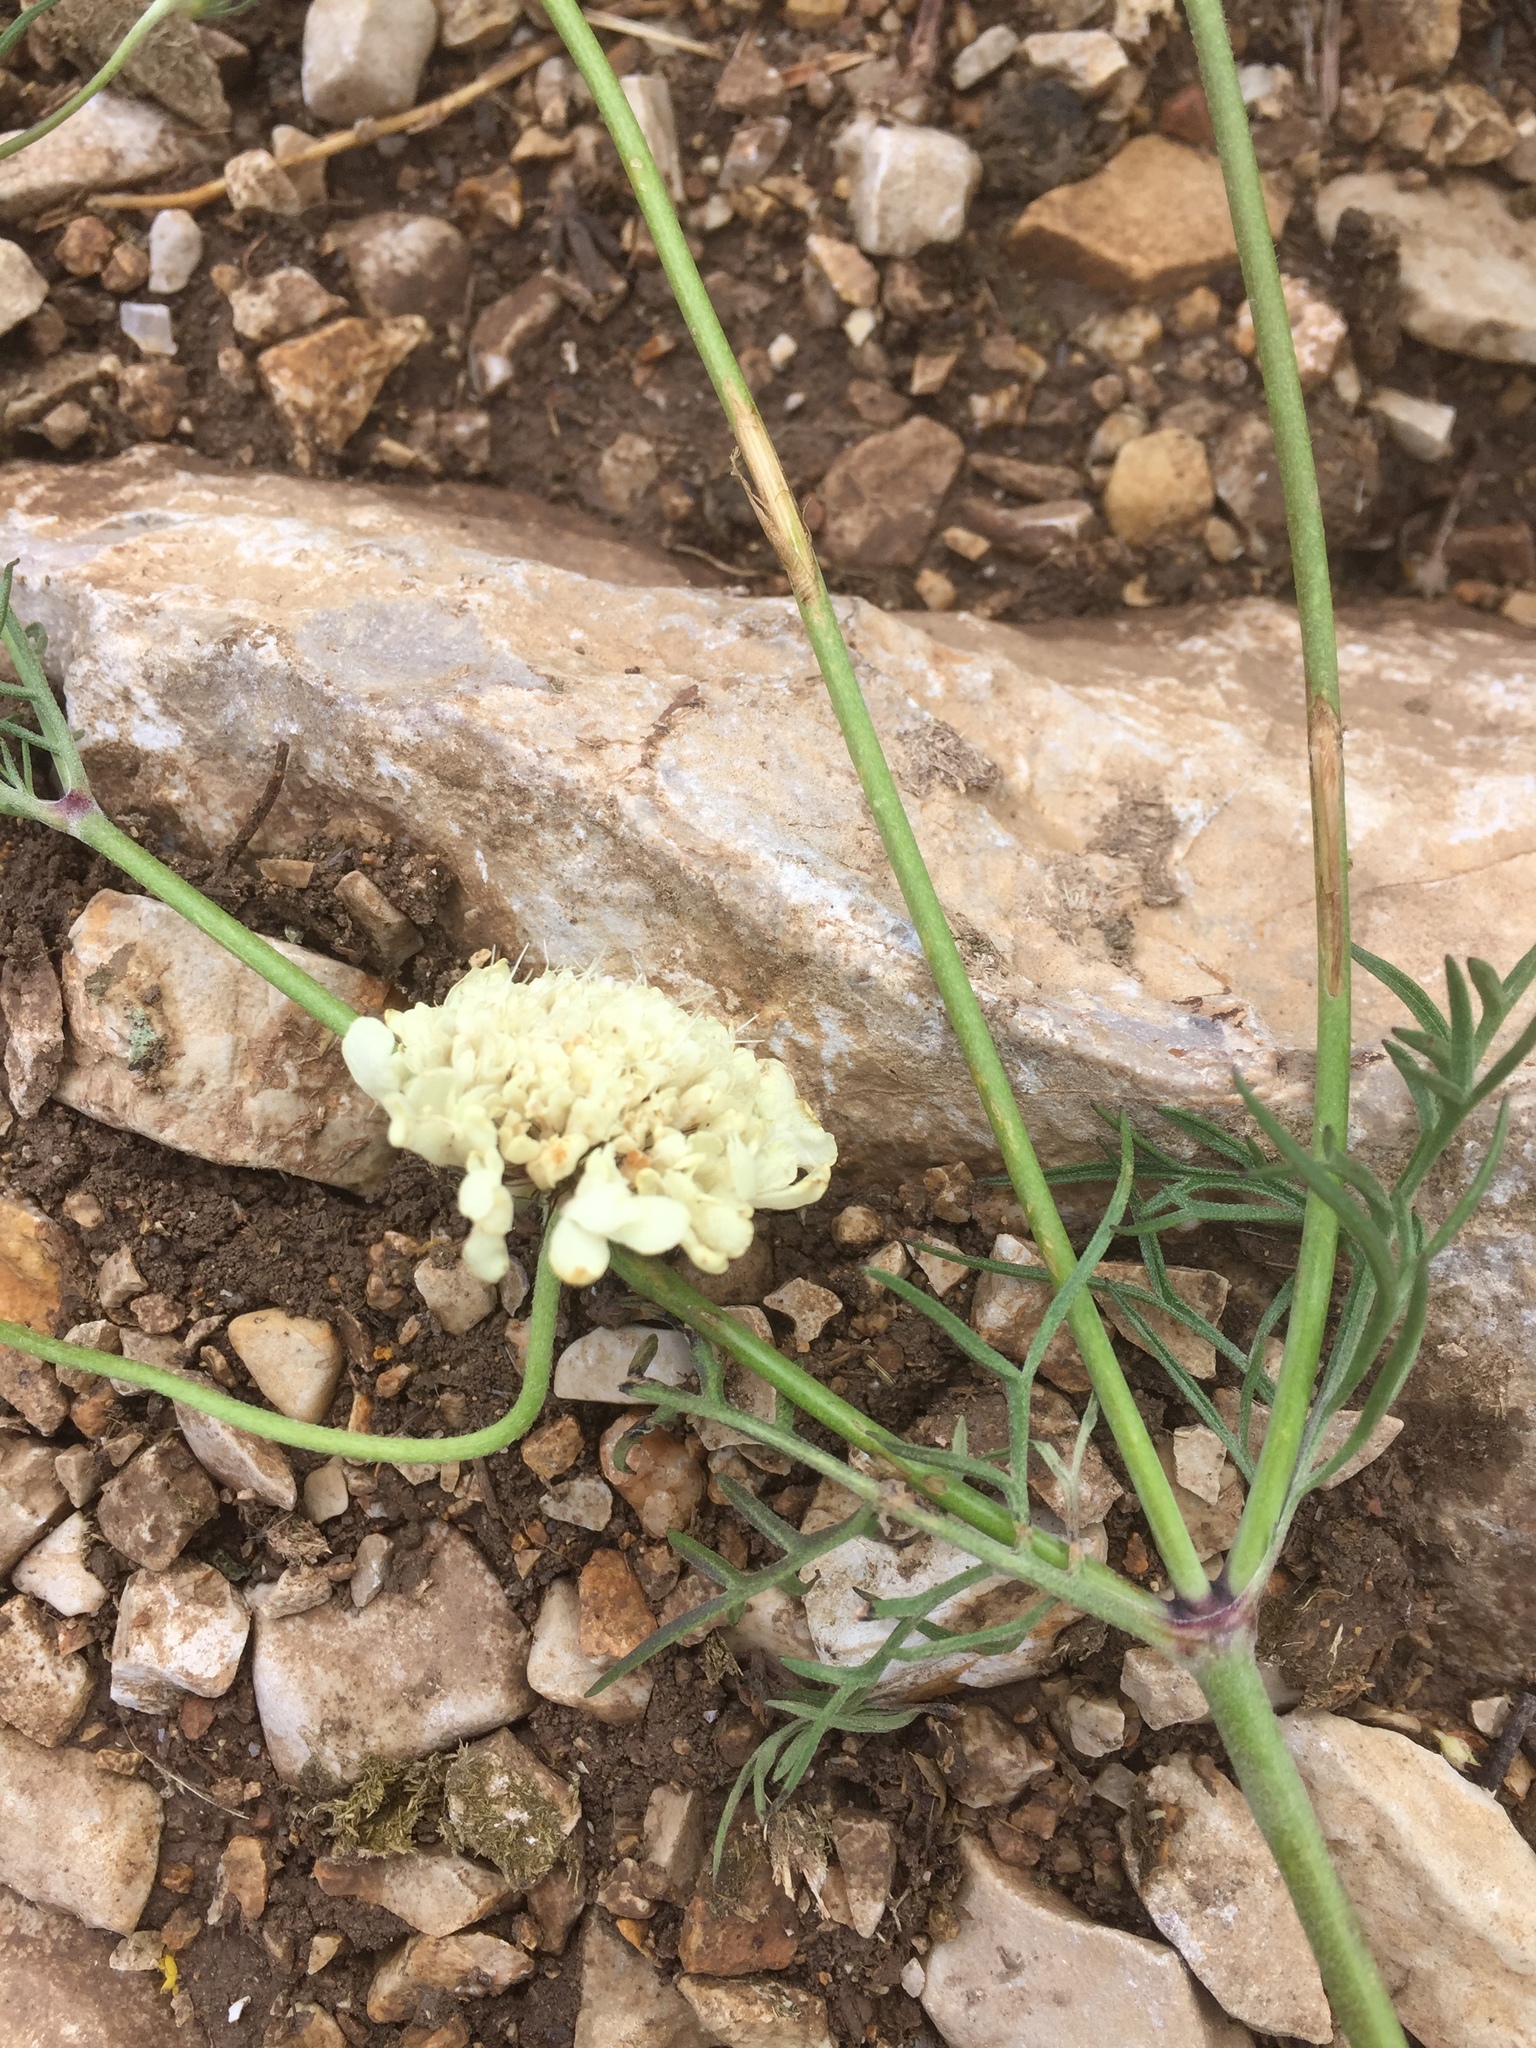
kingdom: Plantae
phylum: Tracheophyta
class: Magnoliopsida
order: Dipsacales
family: Caprifoliaceae
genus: Scabiosa
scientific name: Scabiosa ochroleuca
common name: Cream pincushions
